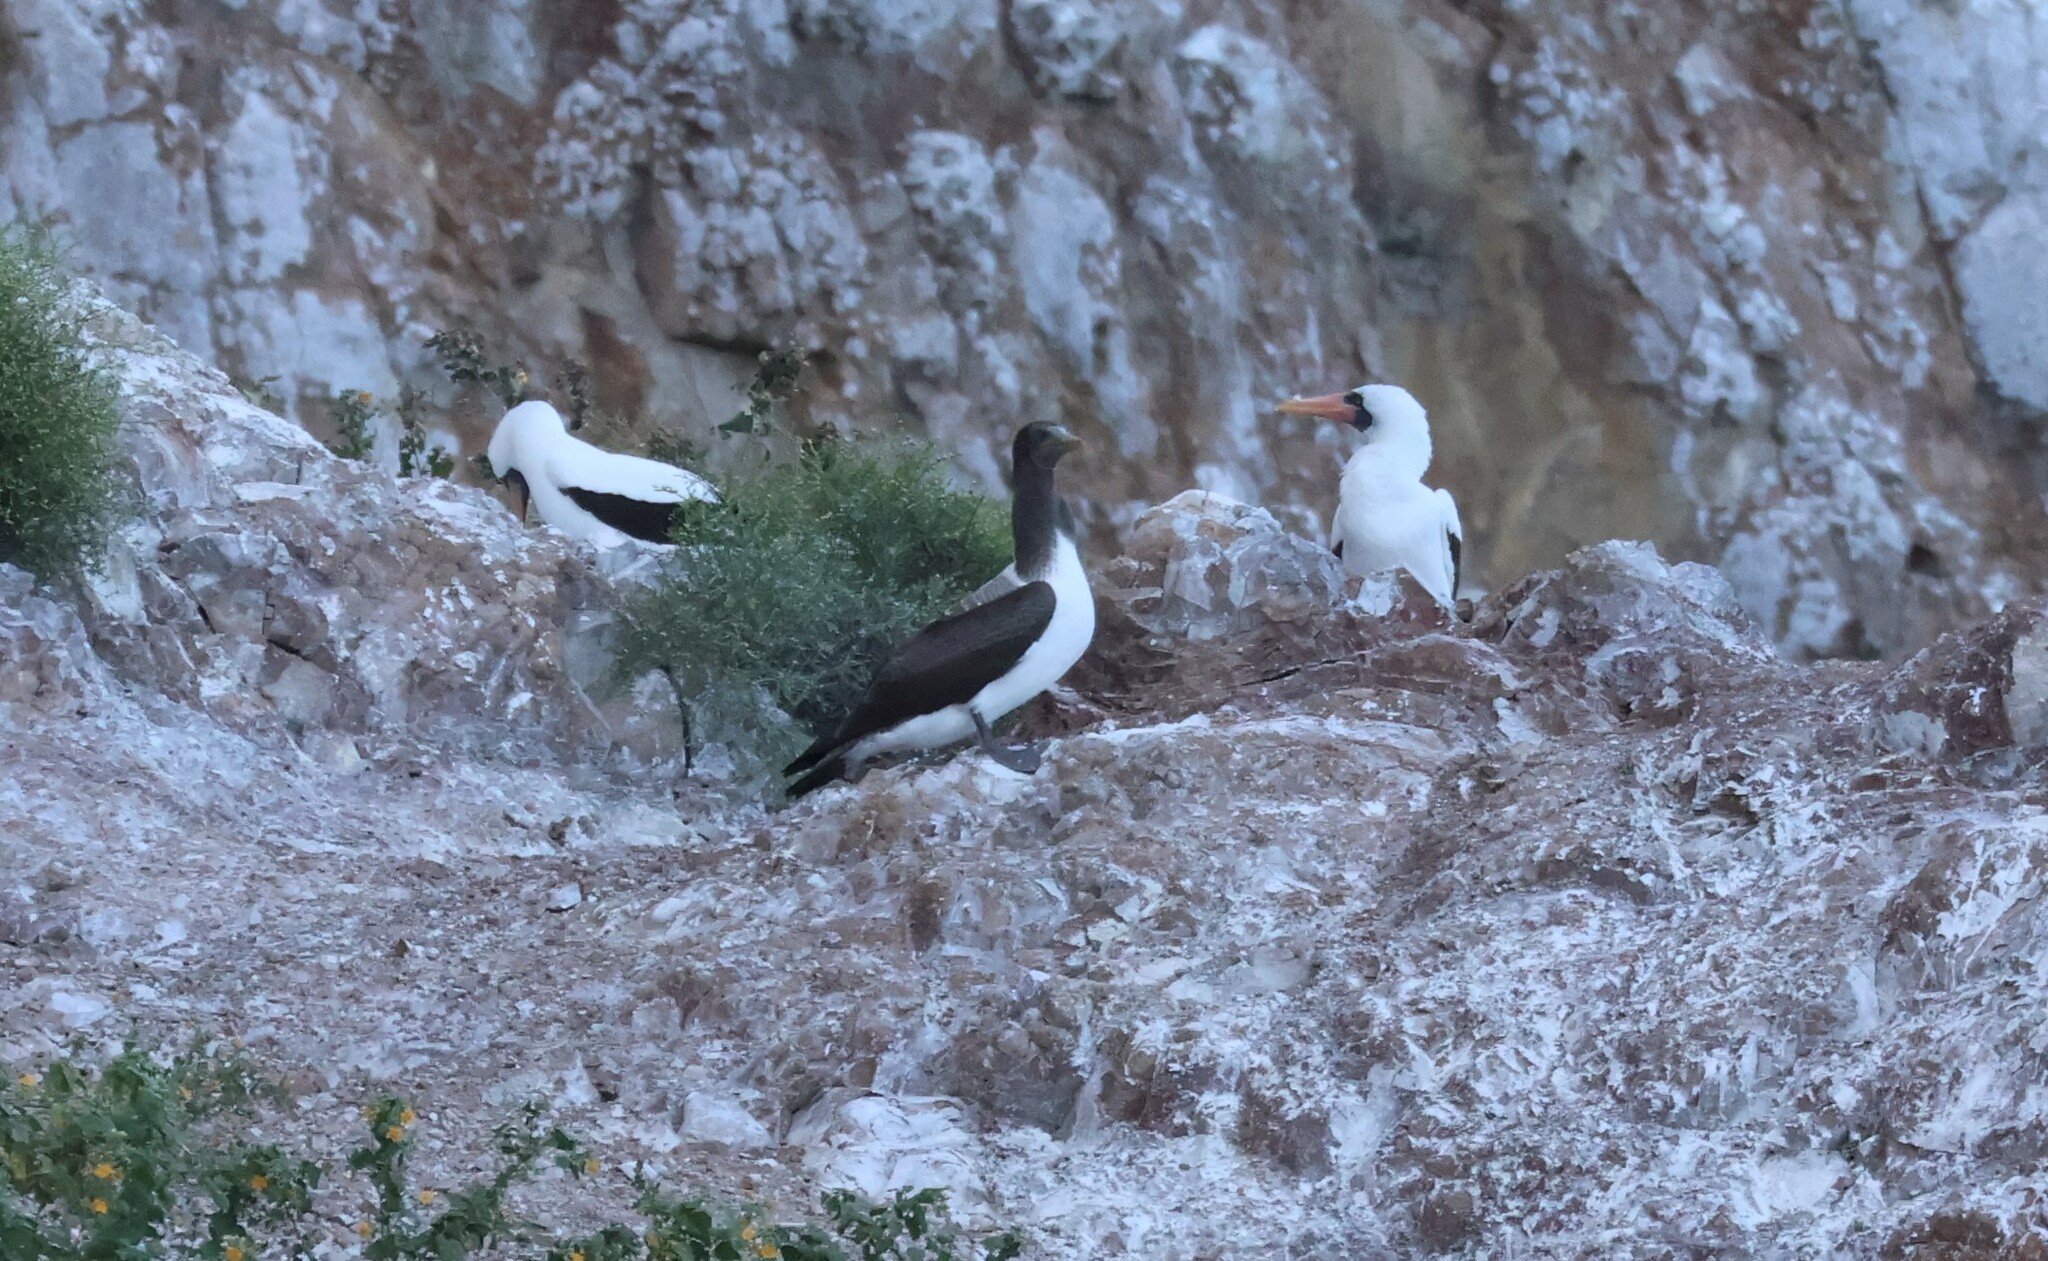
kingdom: Animalia
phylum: Chordata
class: Aves
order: Suliformes
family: Sulidae
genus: Sula
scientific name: Sula granti
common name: Nazca booby
